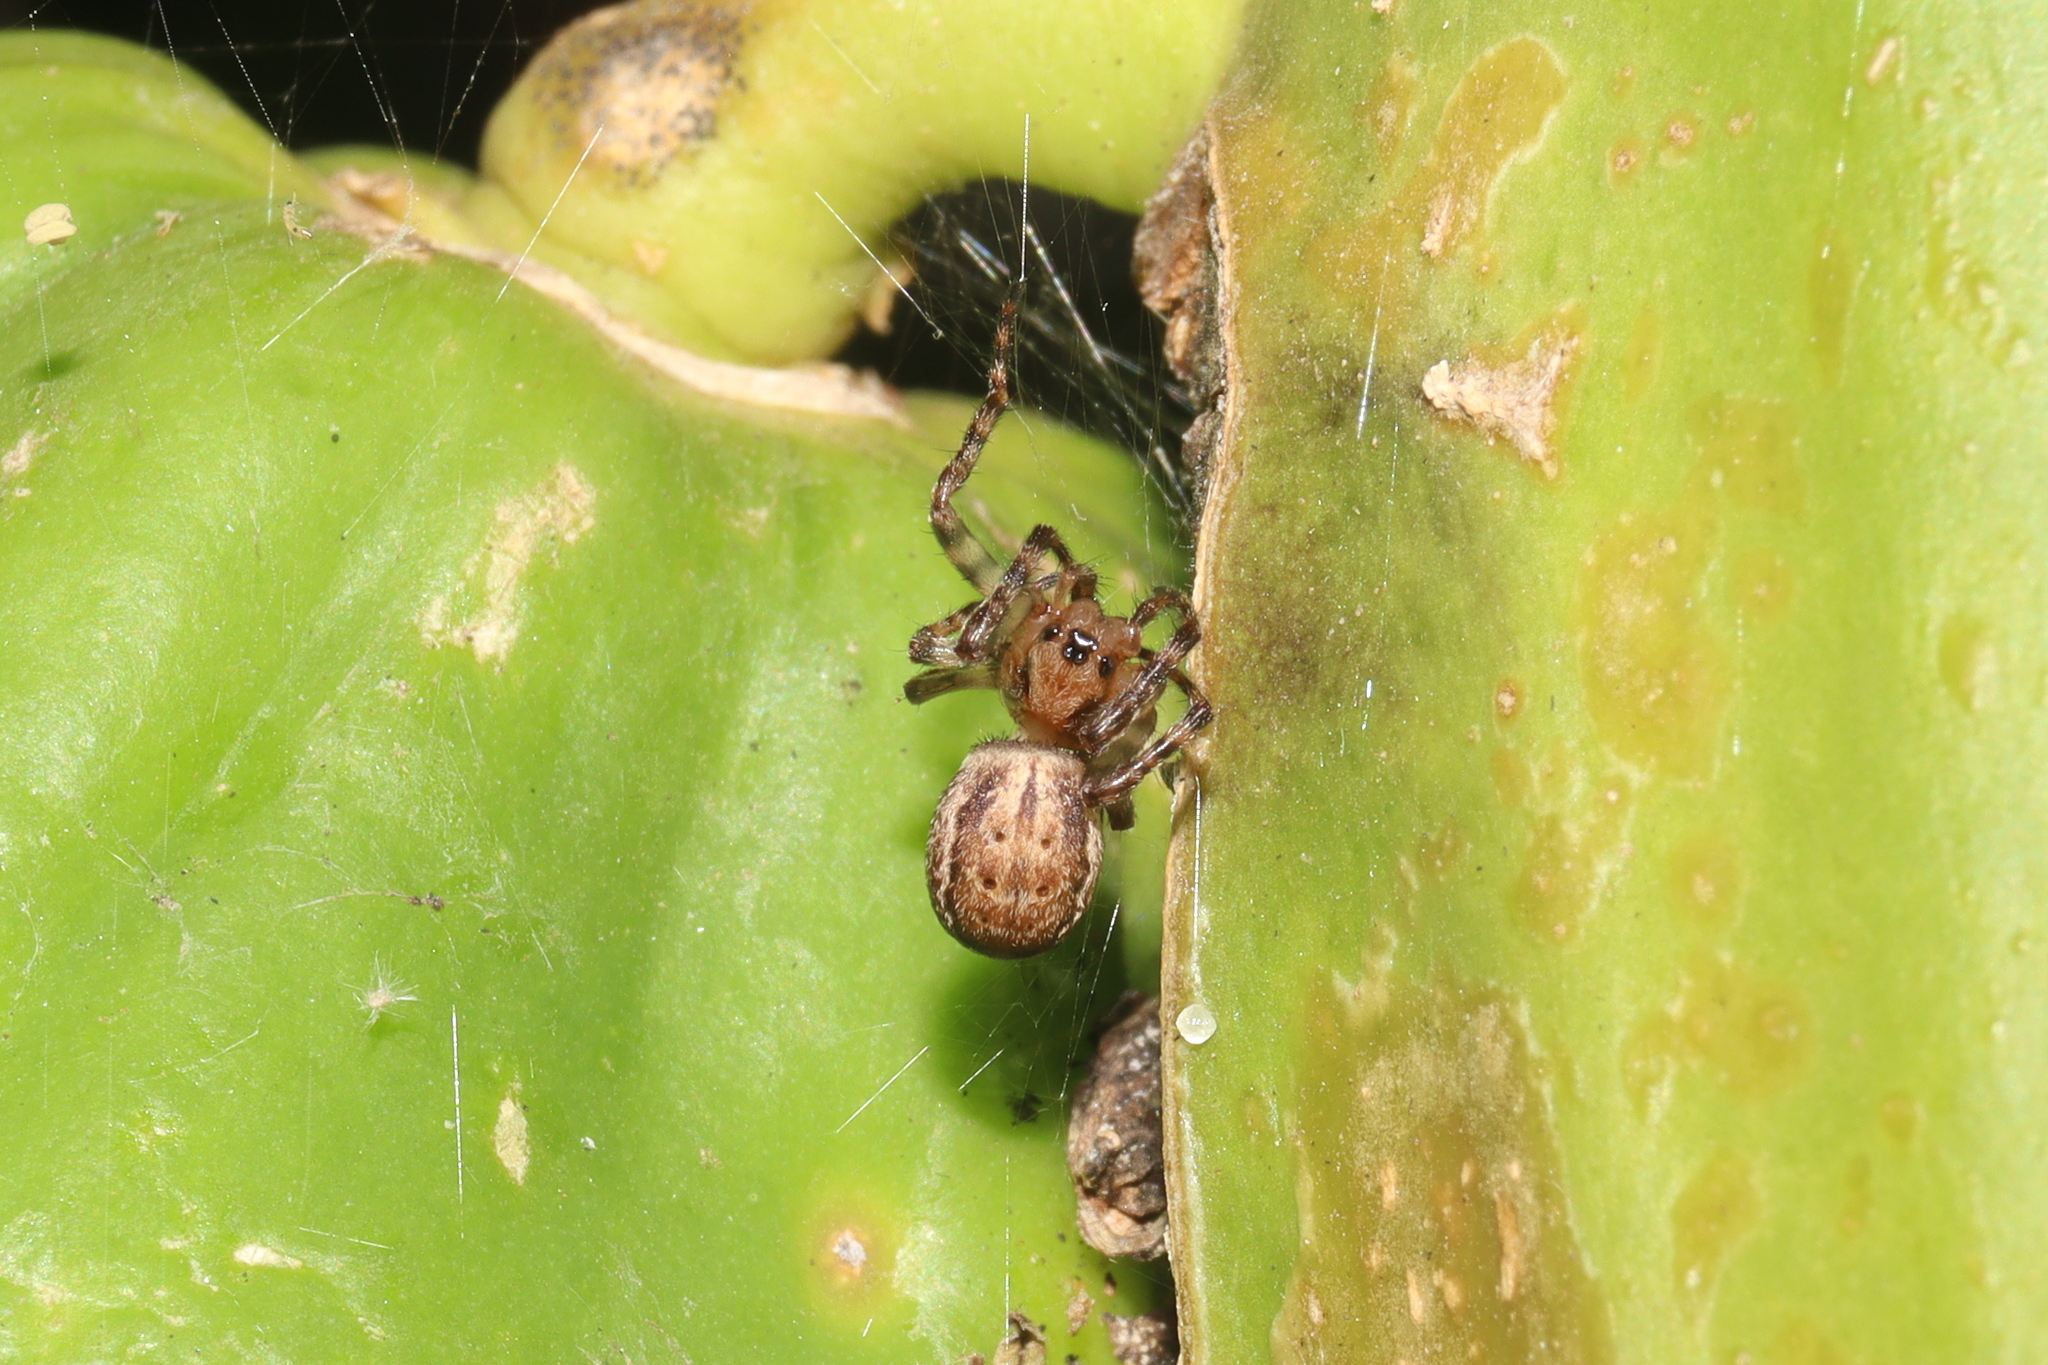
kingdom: Animalia
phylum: Arthropoda
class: Arachnida
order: Araneae
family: Araneidae
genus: Aculepeira
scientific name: Aculepeira travassosi
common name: Orb weavers
